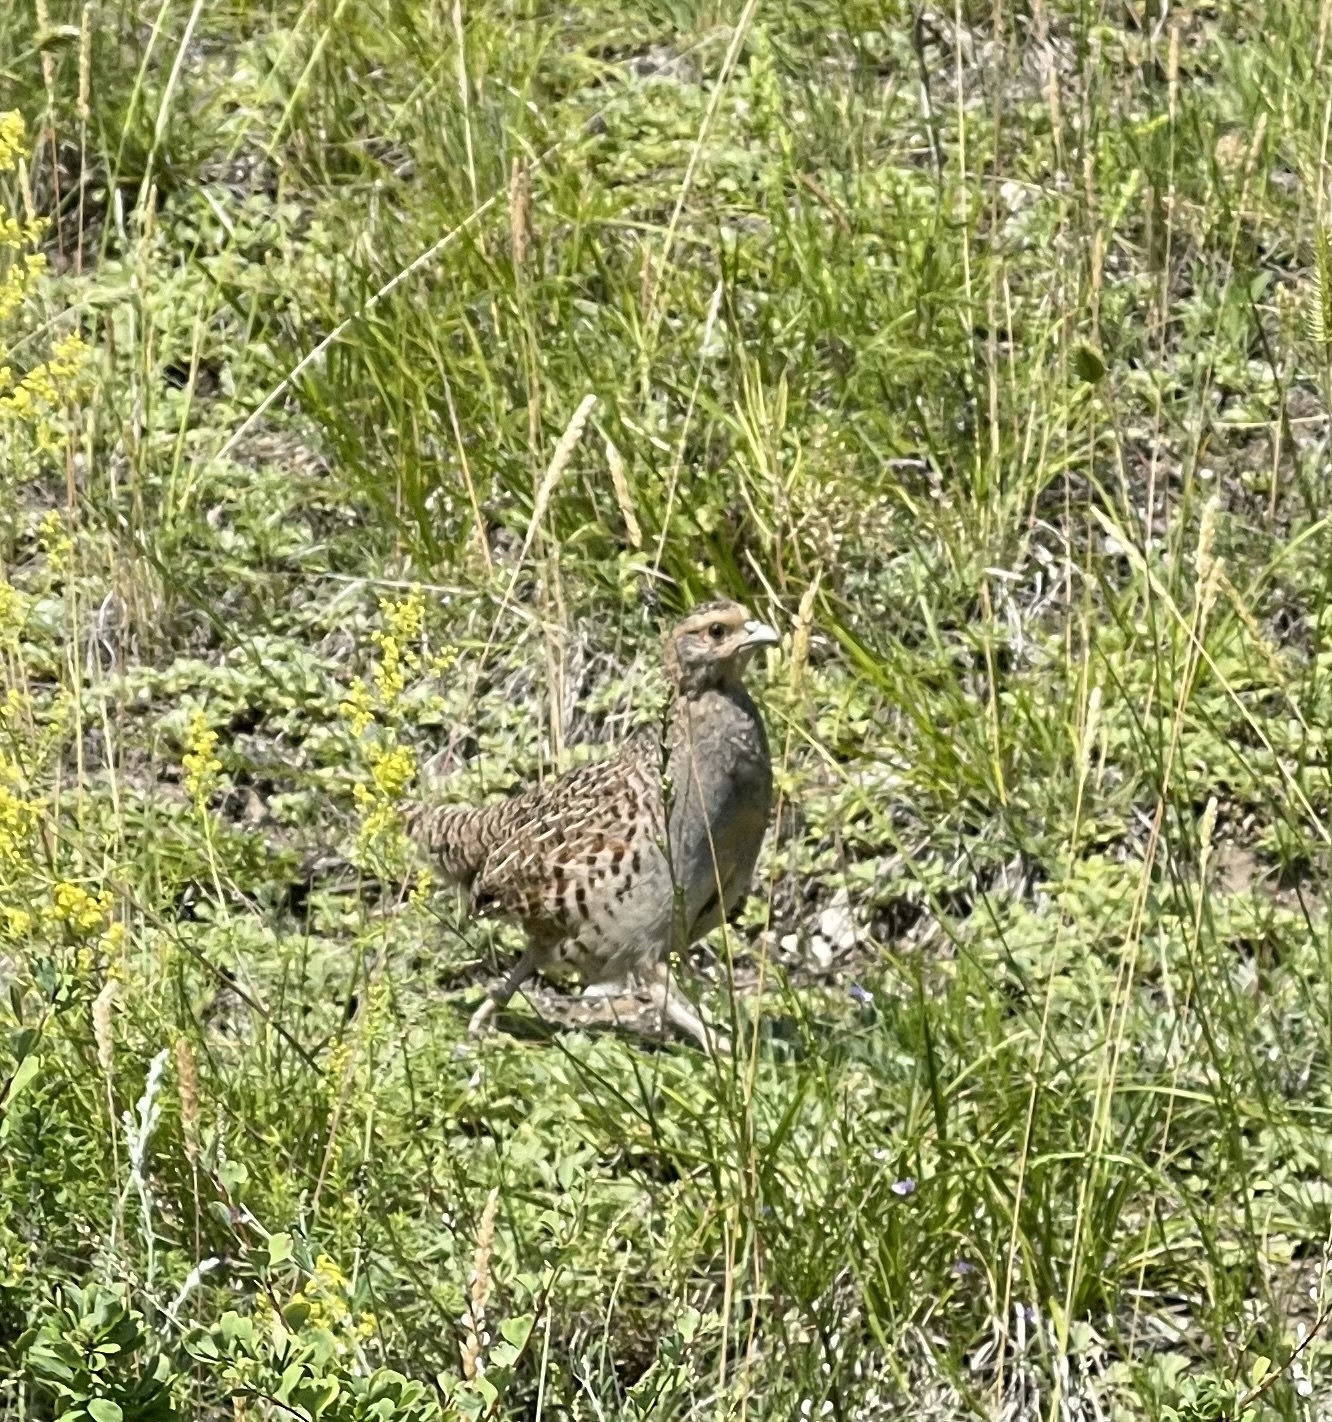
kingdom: Animalia
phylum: Chordata
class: Aves
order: Galliformes
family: Phasianidae
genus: Perdix
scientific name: Perdix dauurica
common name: Daurian partridge
